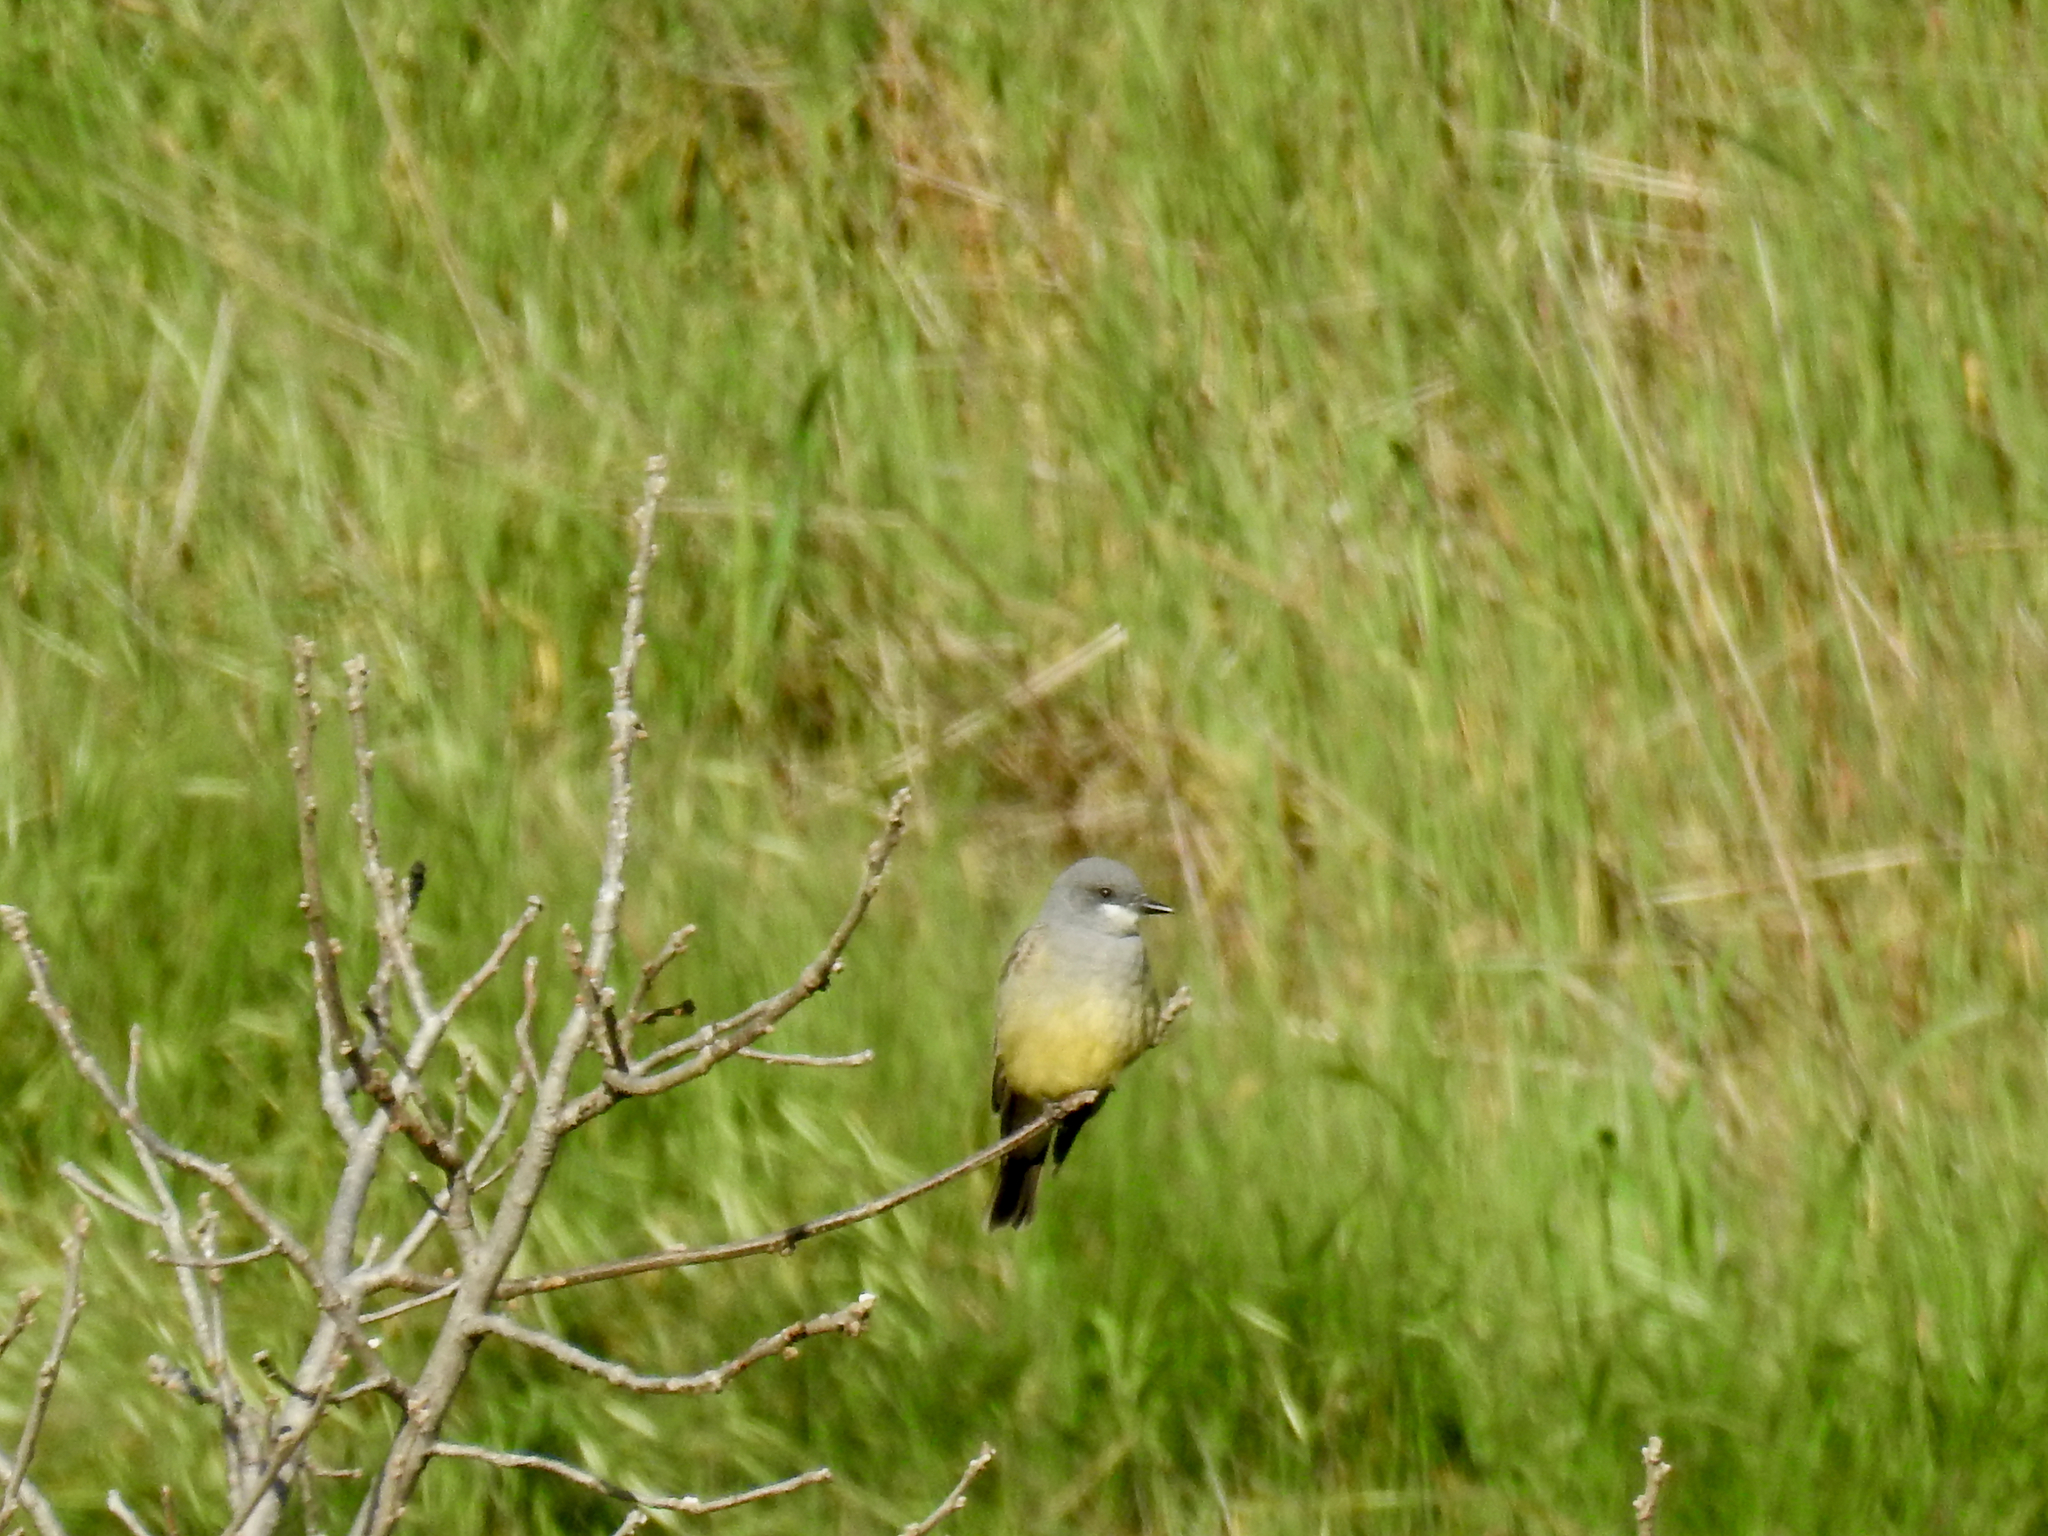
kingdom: Animalia
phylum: Chordata
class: Aves
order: Passeriformes
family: Tyrannidae
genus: Tyrannus
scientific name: Tyrannus vociferans
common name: Cassin's kingbird
